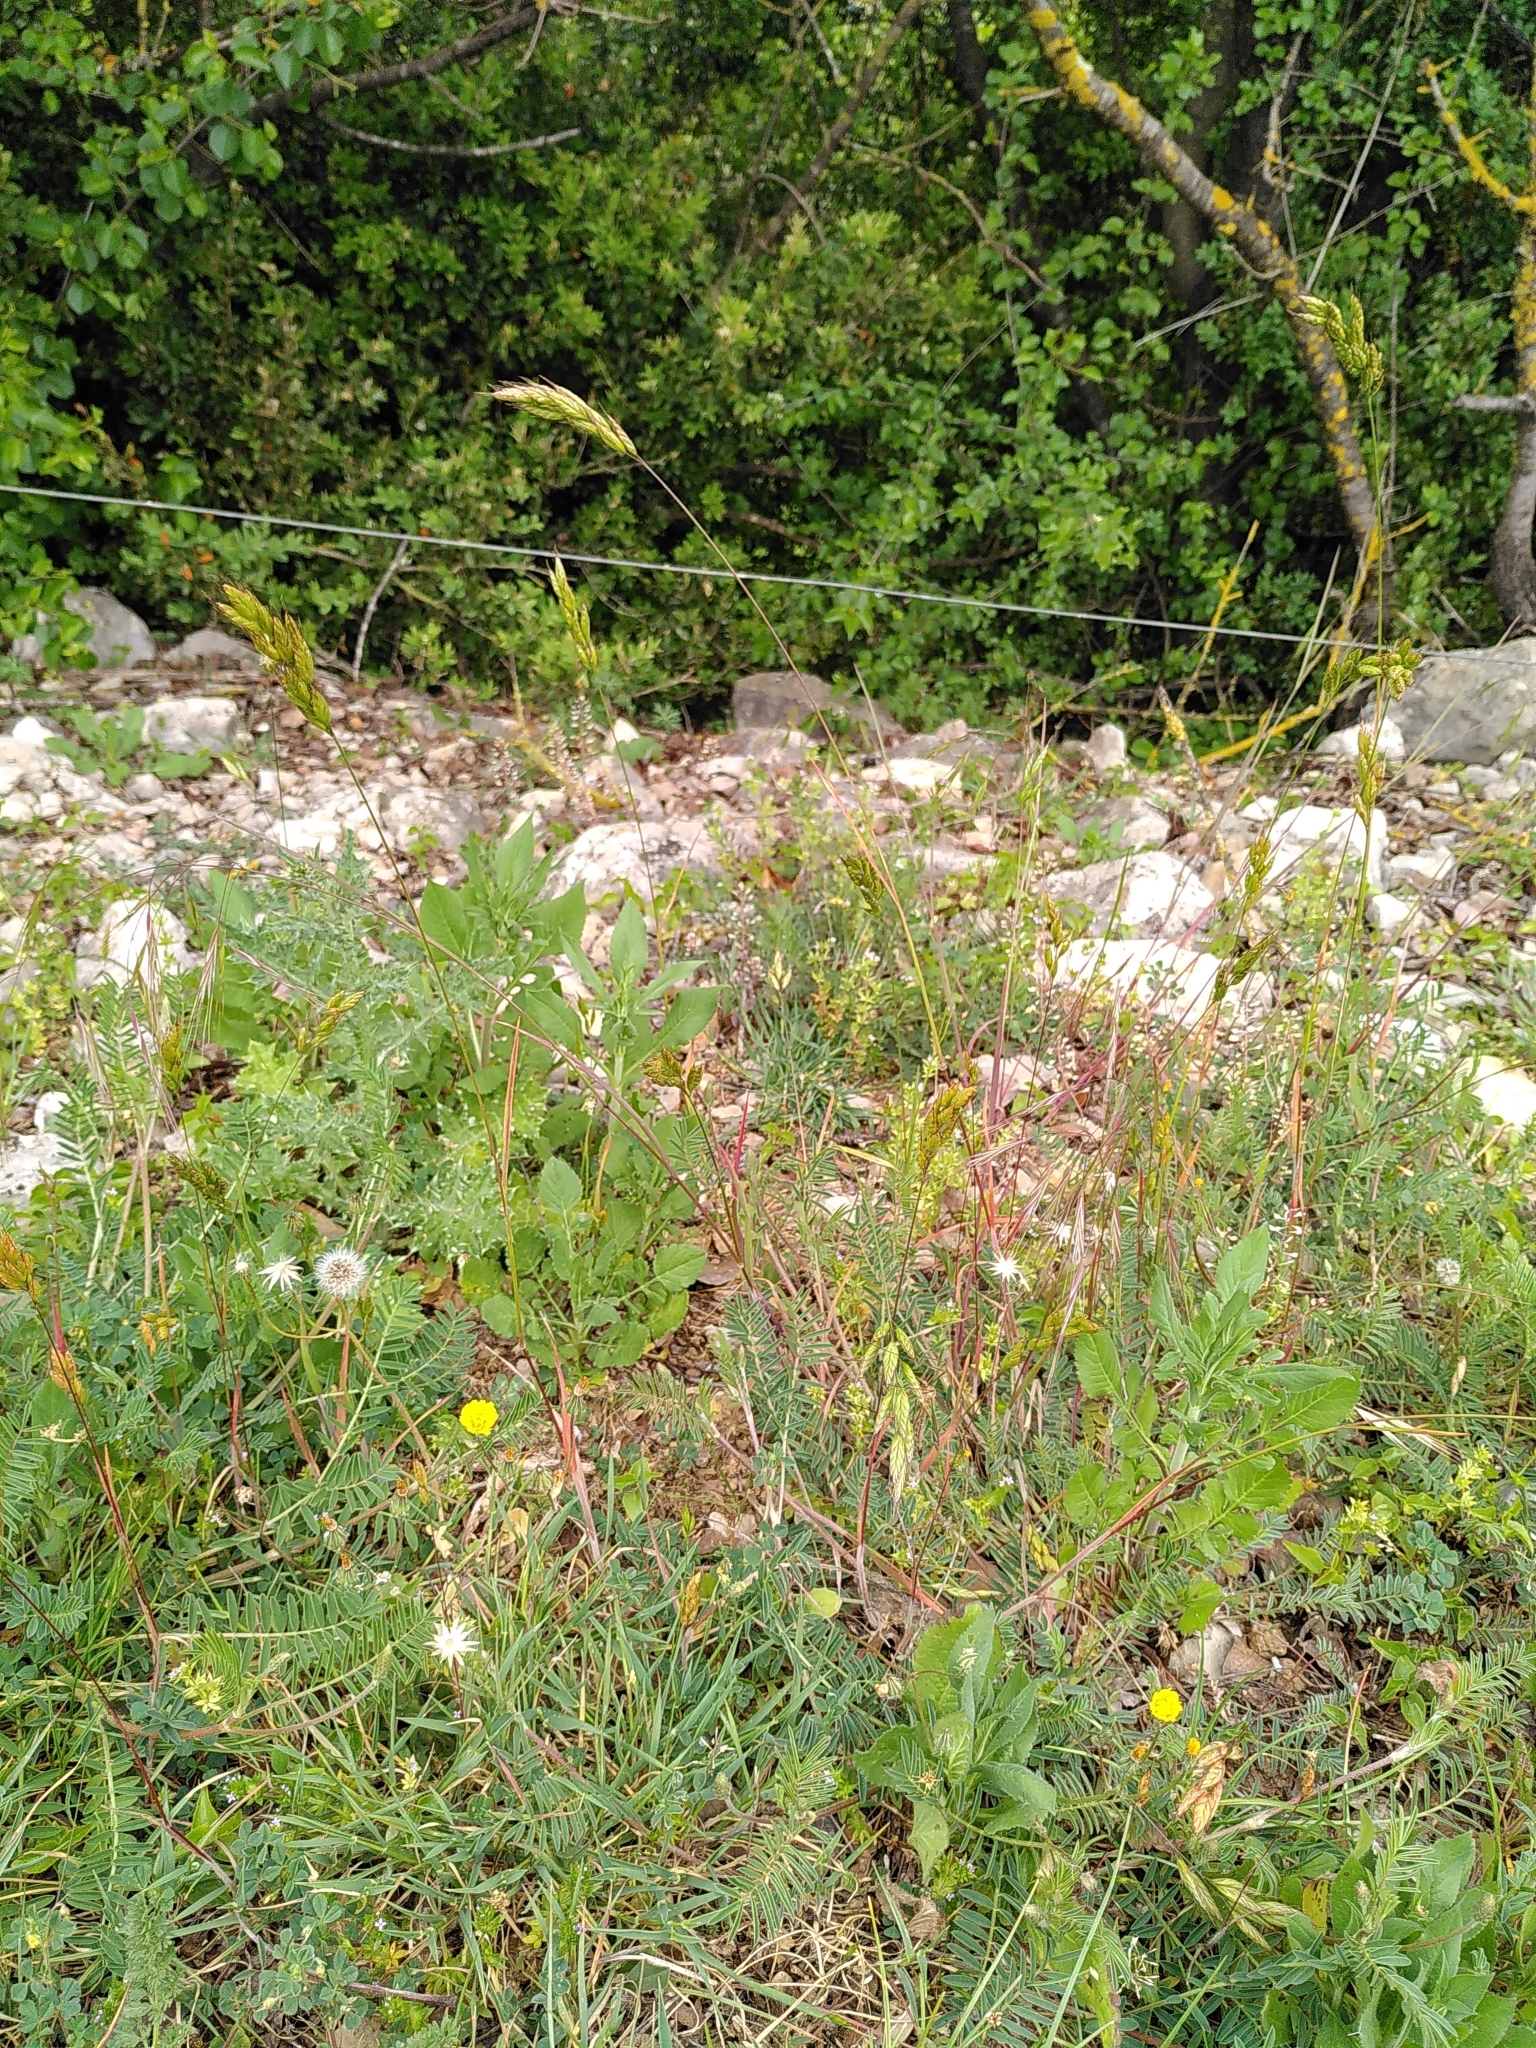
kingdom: Plantae
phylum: Tracheophyta
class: Liliopsida
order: Poales
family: Poaceae
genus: Bromus
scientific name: Bromus hordeaceus
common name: Soft brome
